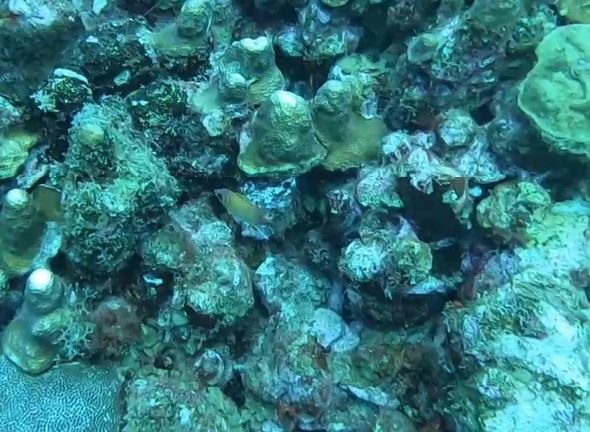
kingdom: Animalia
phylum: Chordata
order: Beryciformes
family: Holocentridae
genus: Neoniphon
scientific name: Neoniphon marianus
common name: Longjaw squirrelfish
